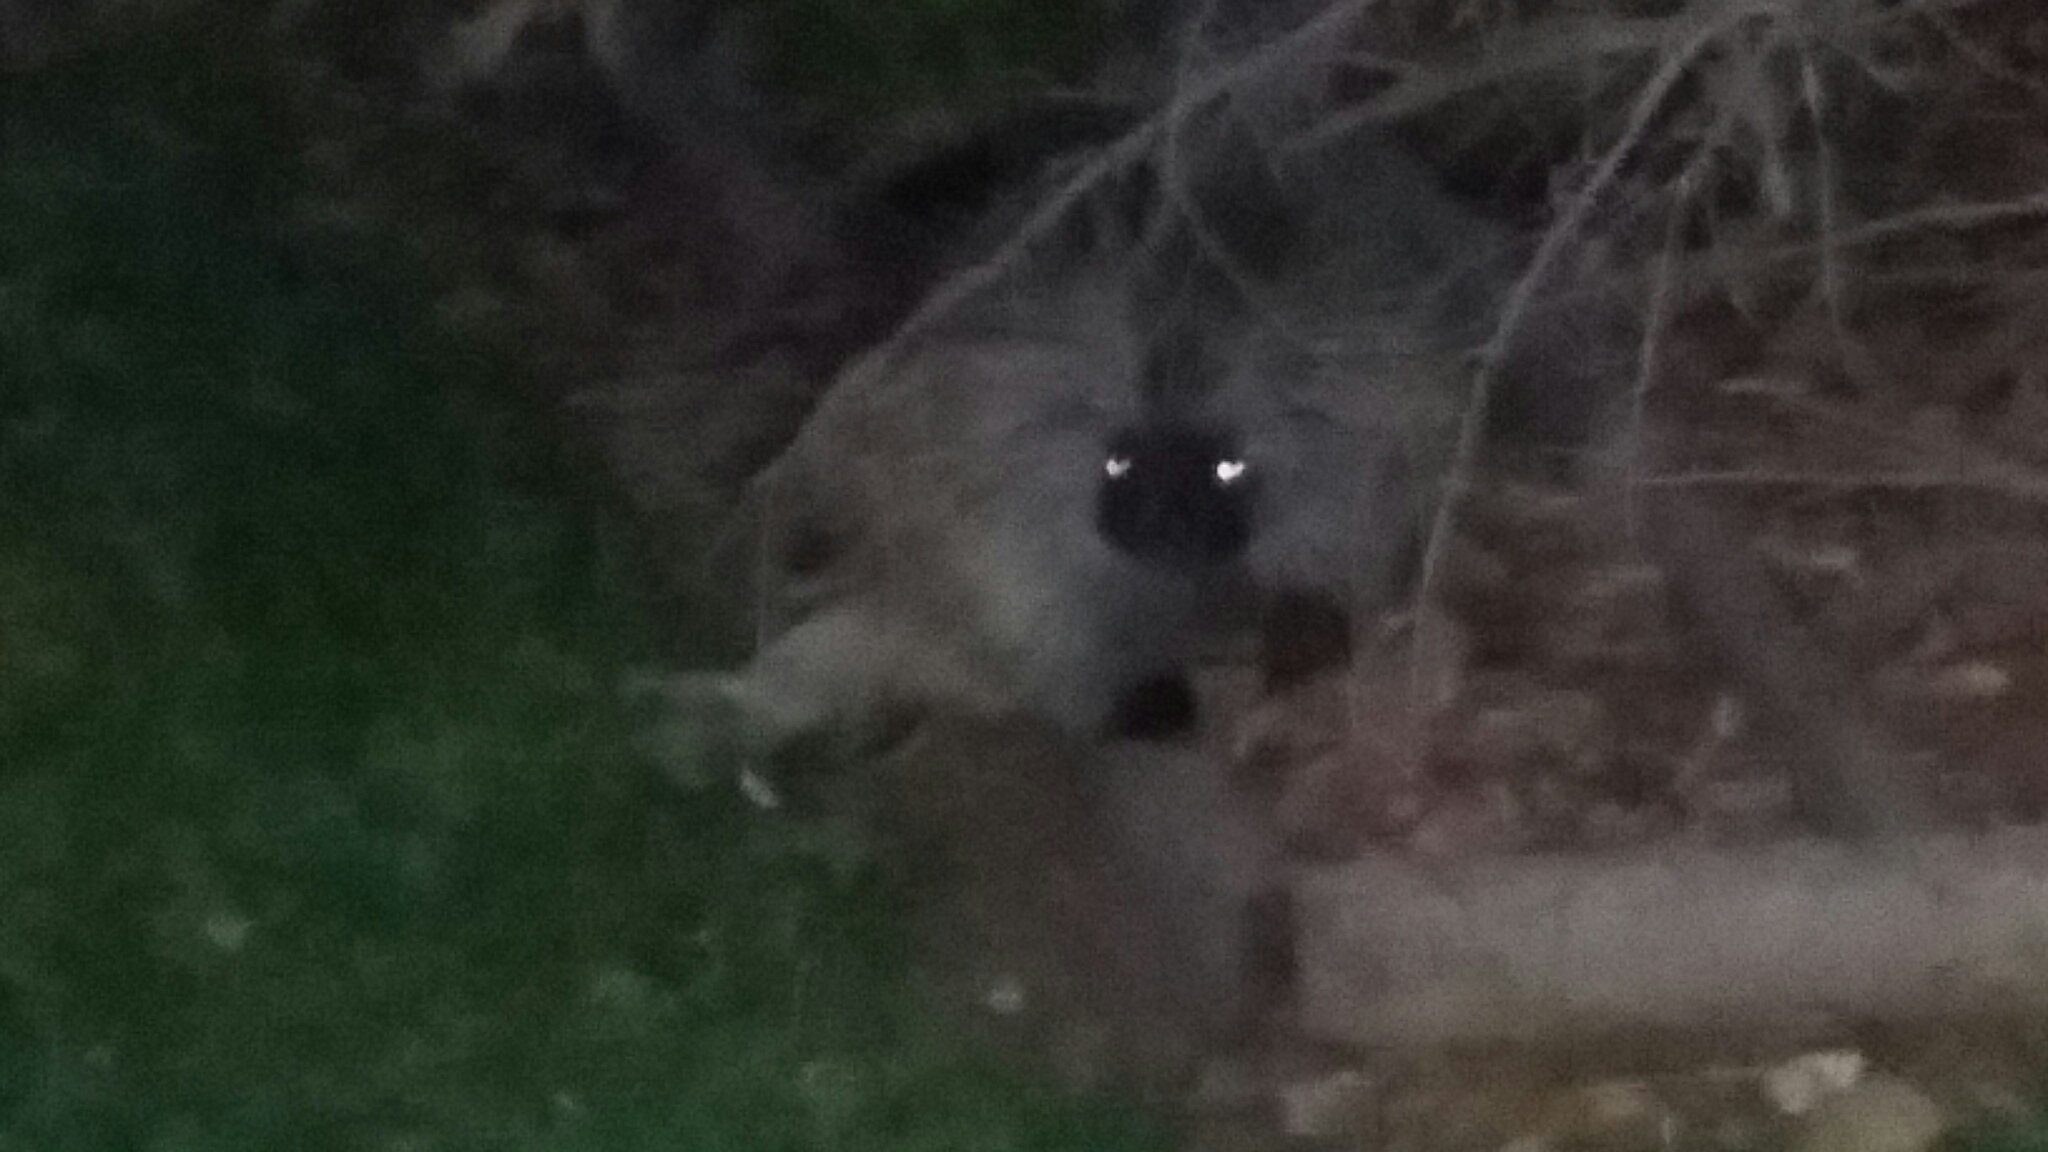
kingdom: Animalia
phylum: Chordata
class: Mammalia
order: Rodentia
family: Erethizontidae
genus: Erethizon
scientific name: Erethizon dorsatus
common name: North american porcupine
